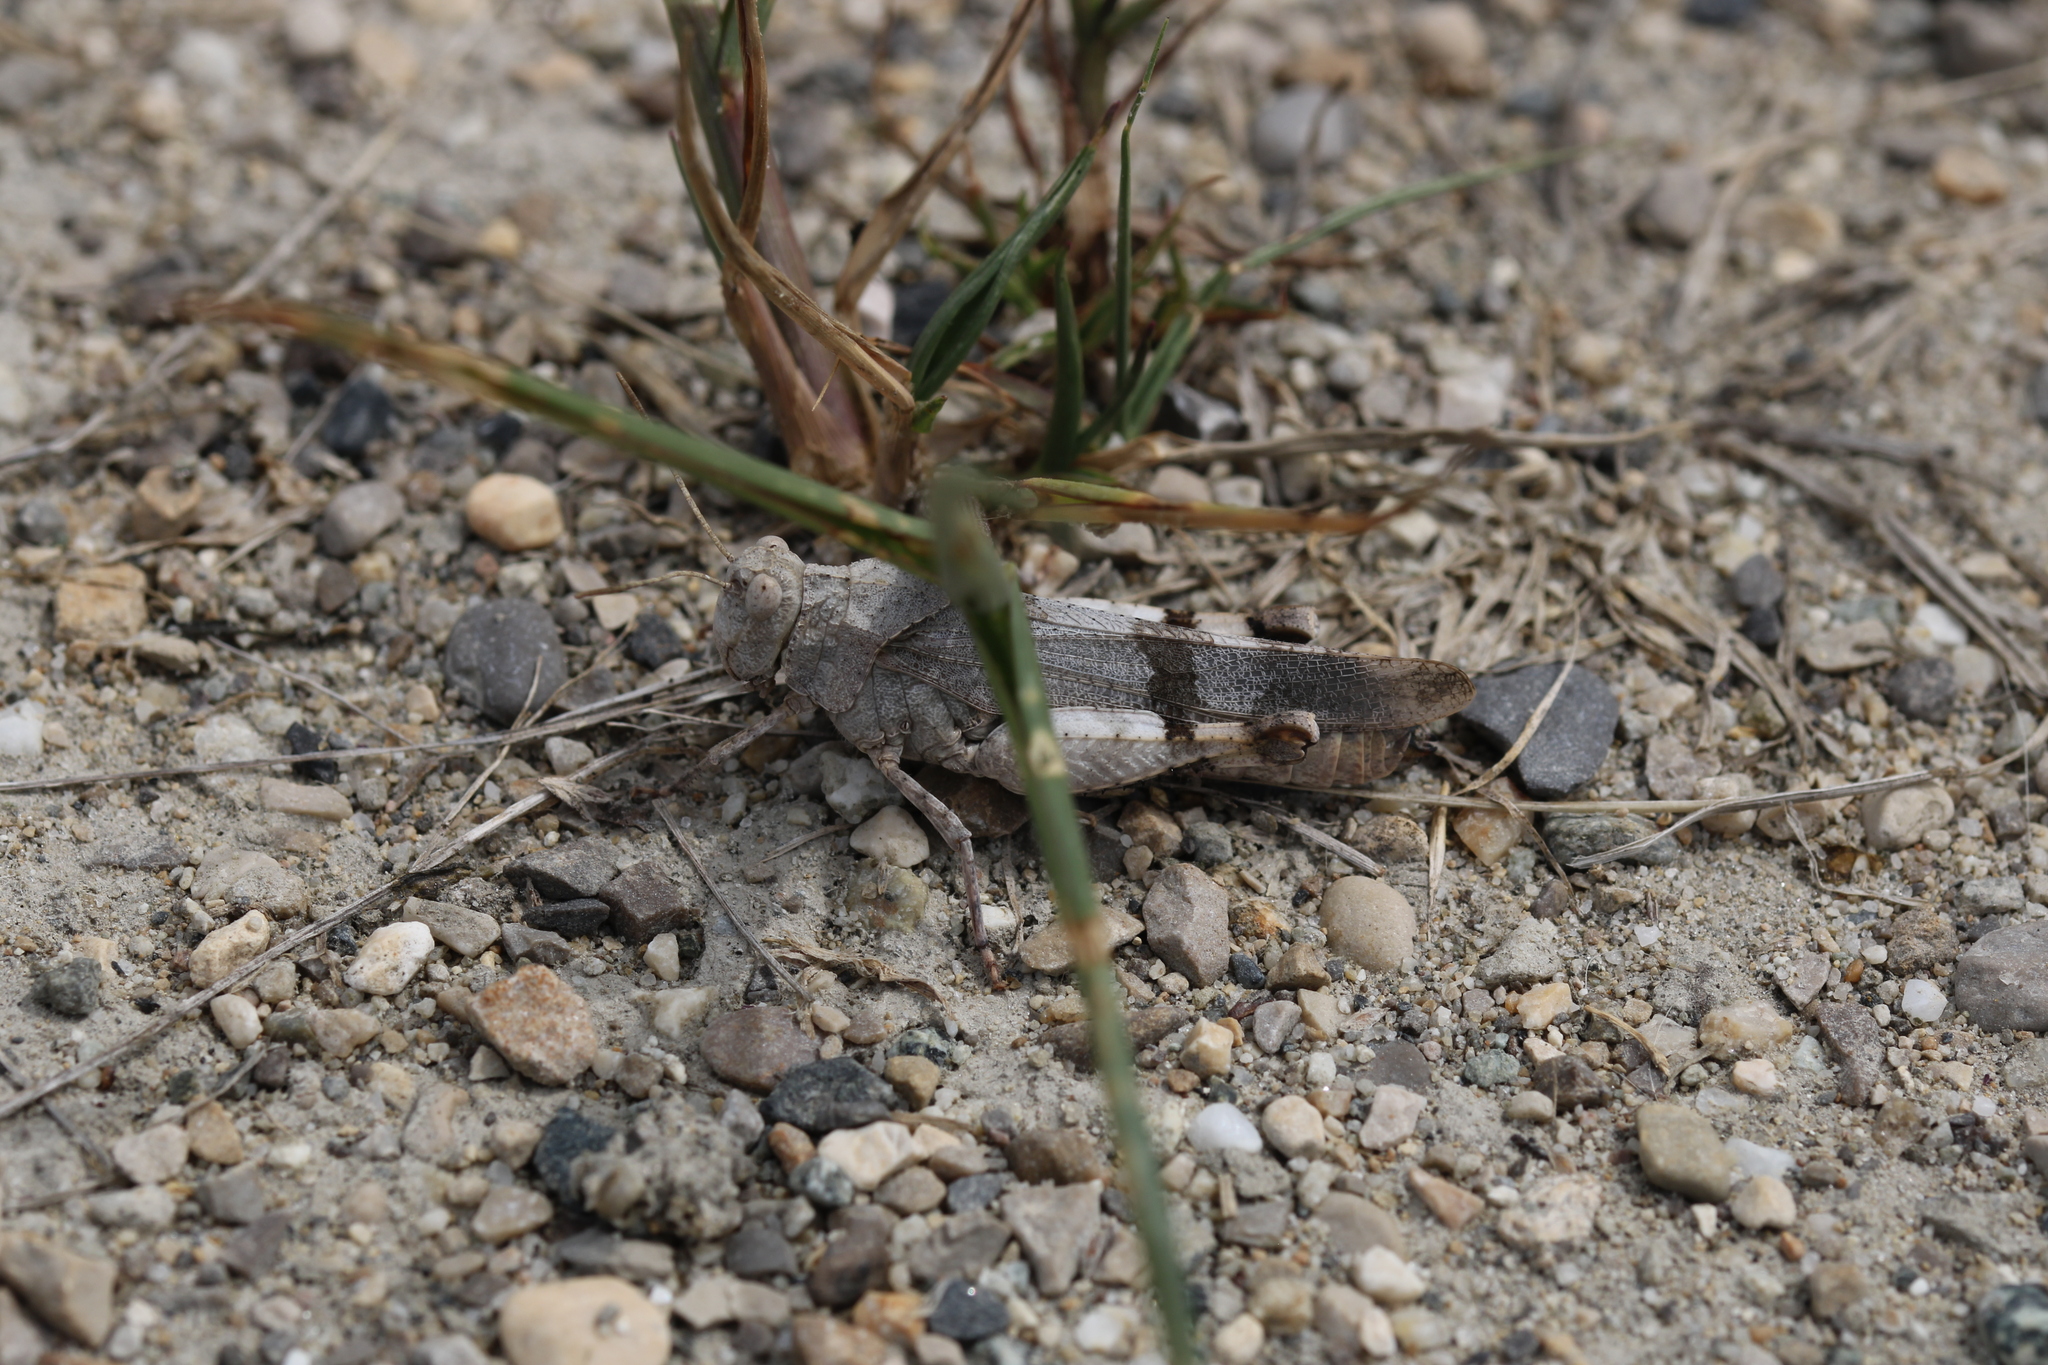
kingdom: Animalia
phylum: Arthropoda
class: Insecta
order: Orthoptera
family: Acrididae
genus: Oedipoda
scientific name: Oedipoda caerulescens
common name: Blue-winged grasshopper
